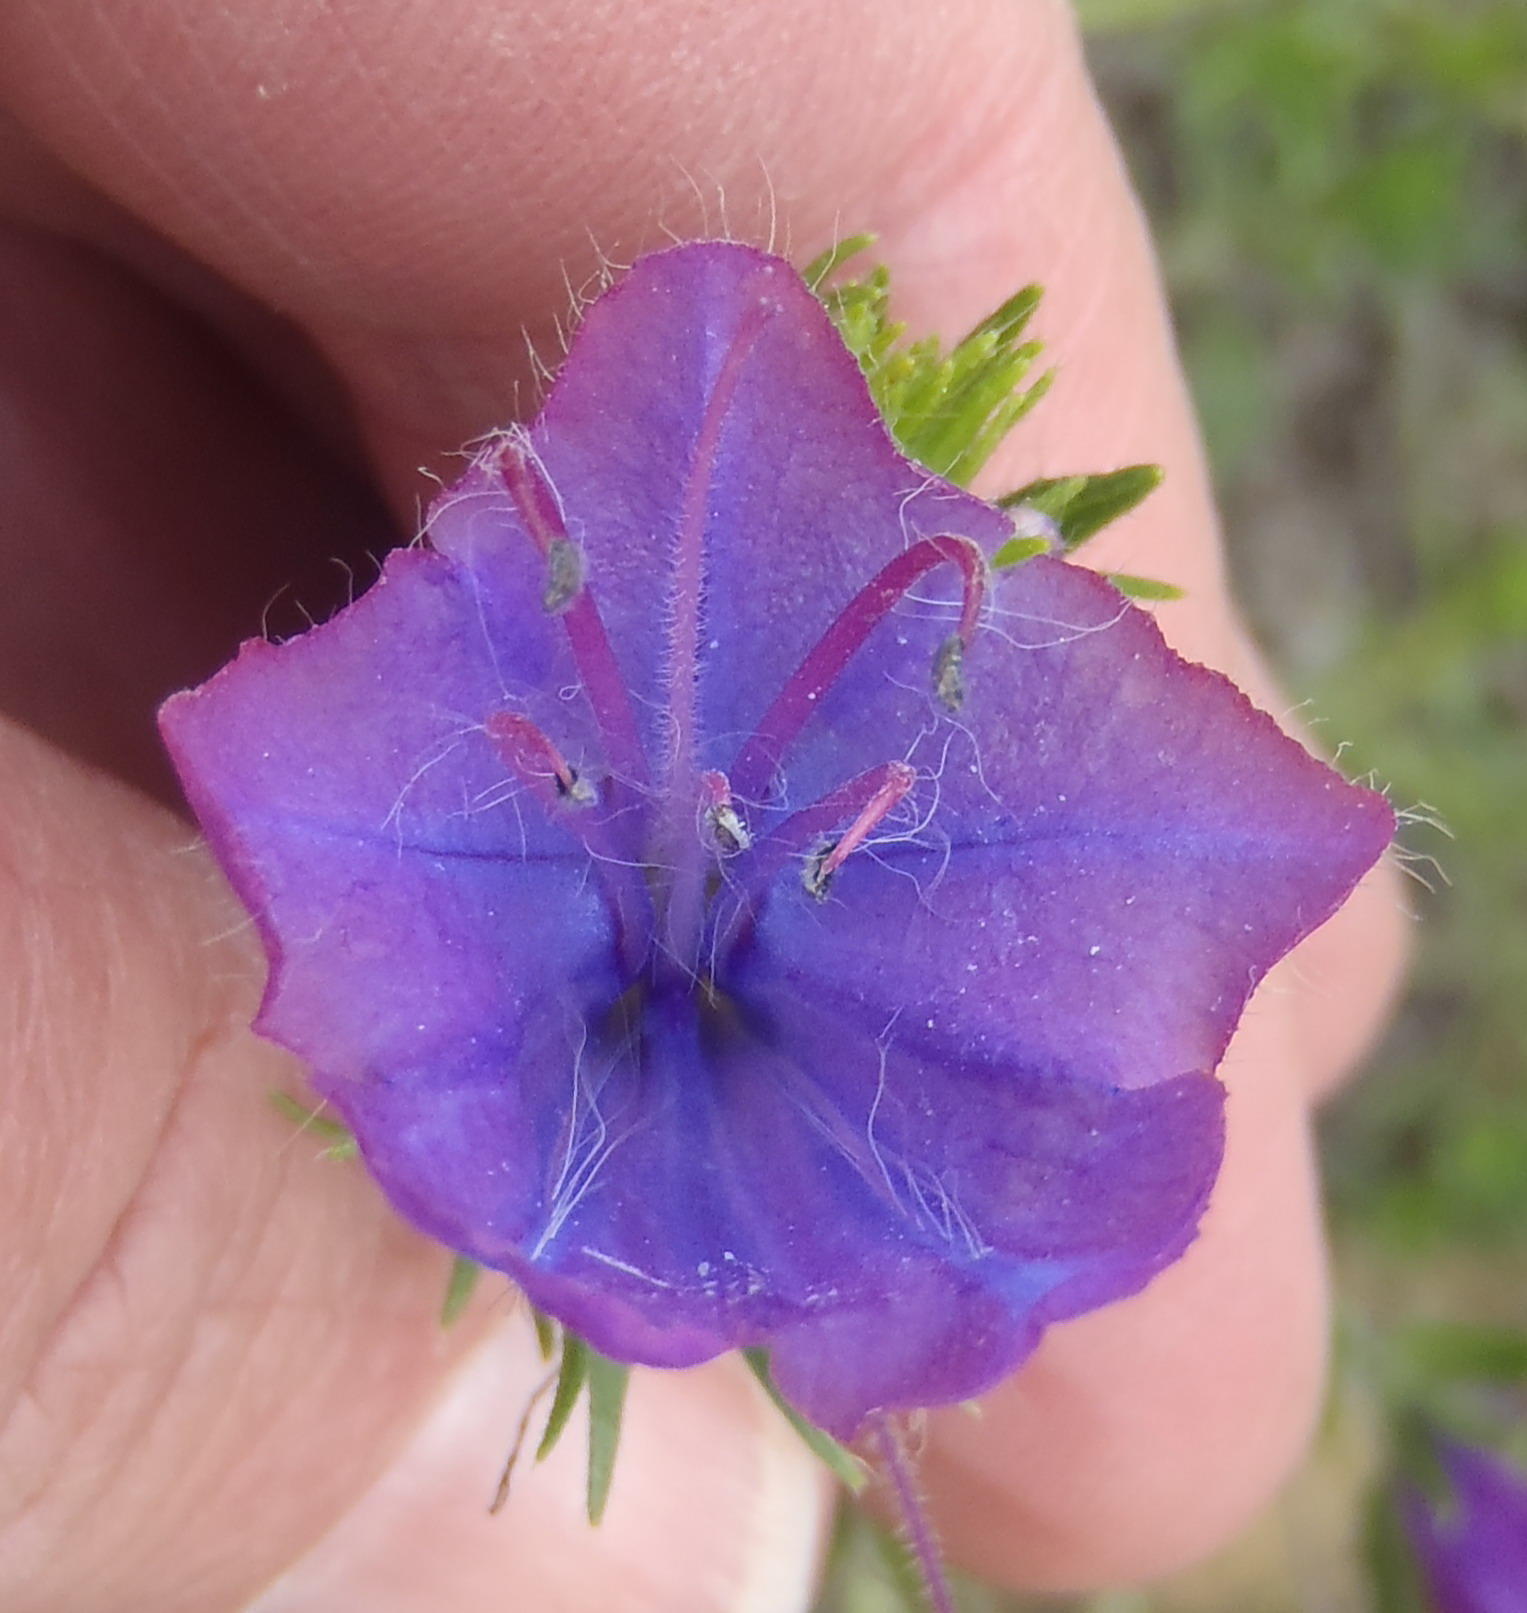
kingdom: Plantae
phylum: Tracheophyta
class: Magnoliopsida
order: Boraginales
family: Boraginaceae
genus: Echium
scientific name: Echium plantagineum
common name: Purple viper's-bugloss
